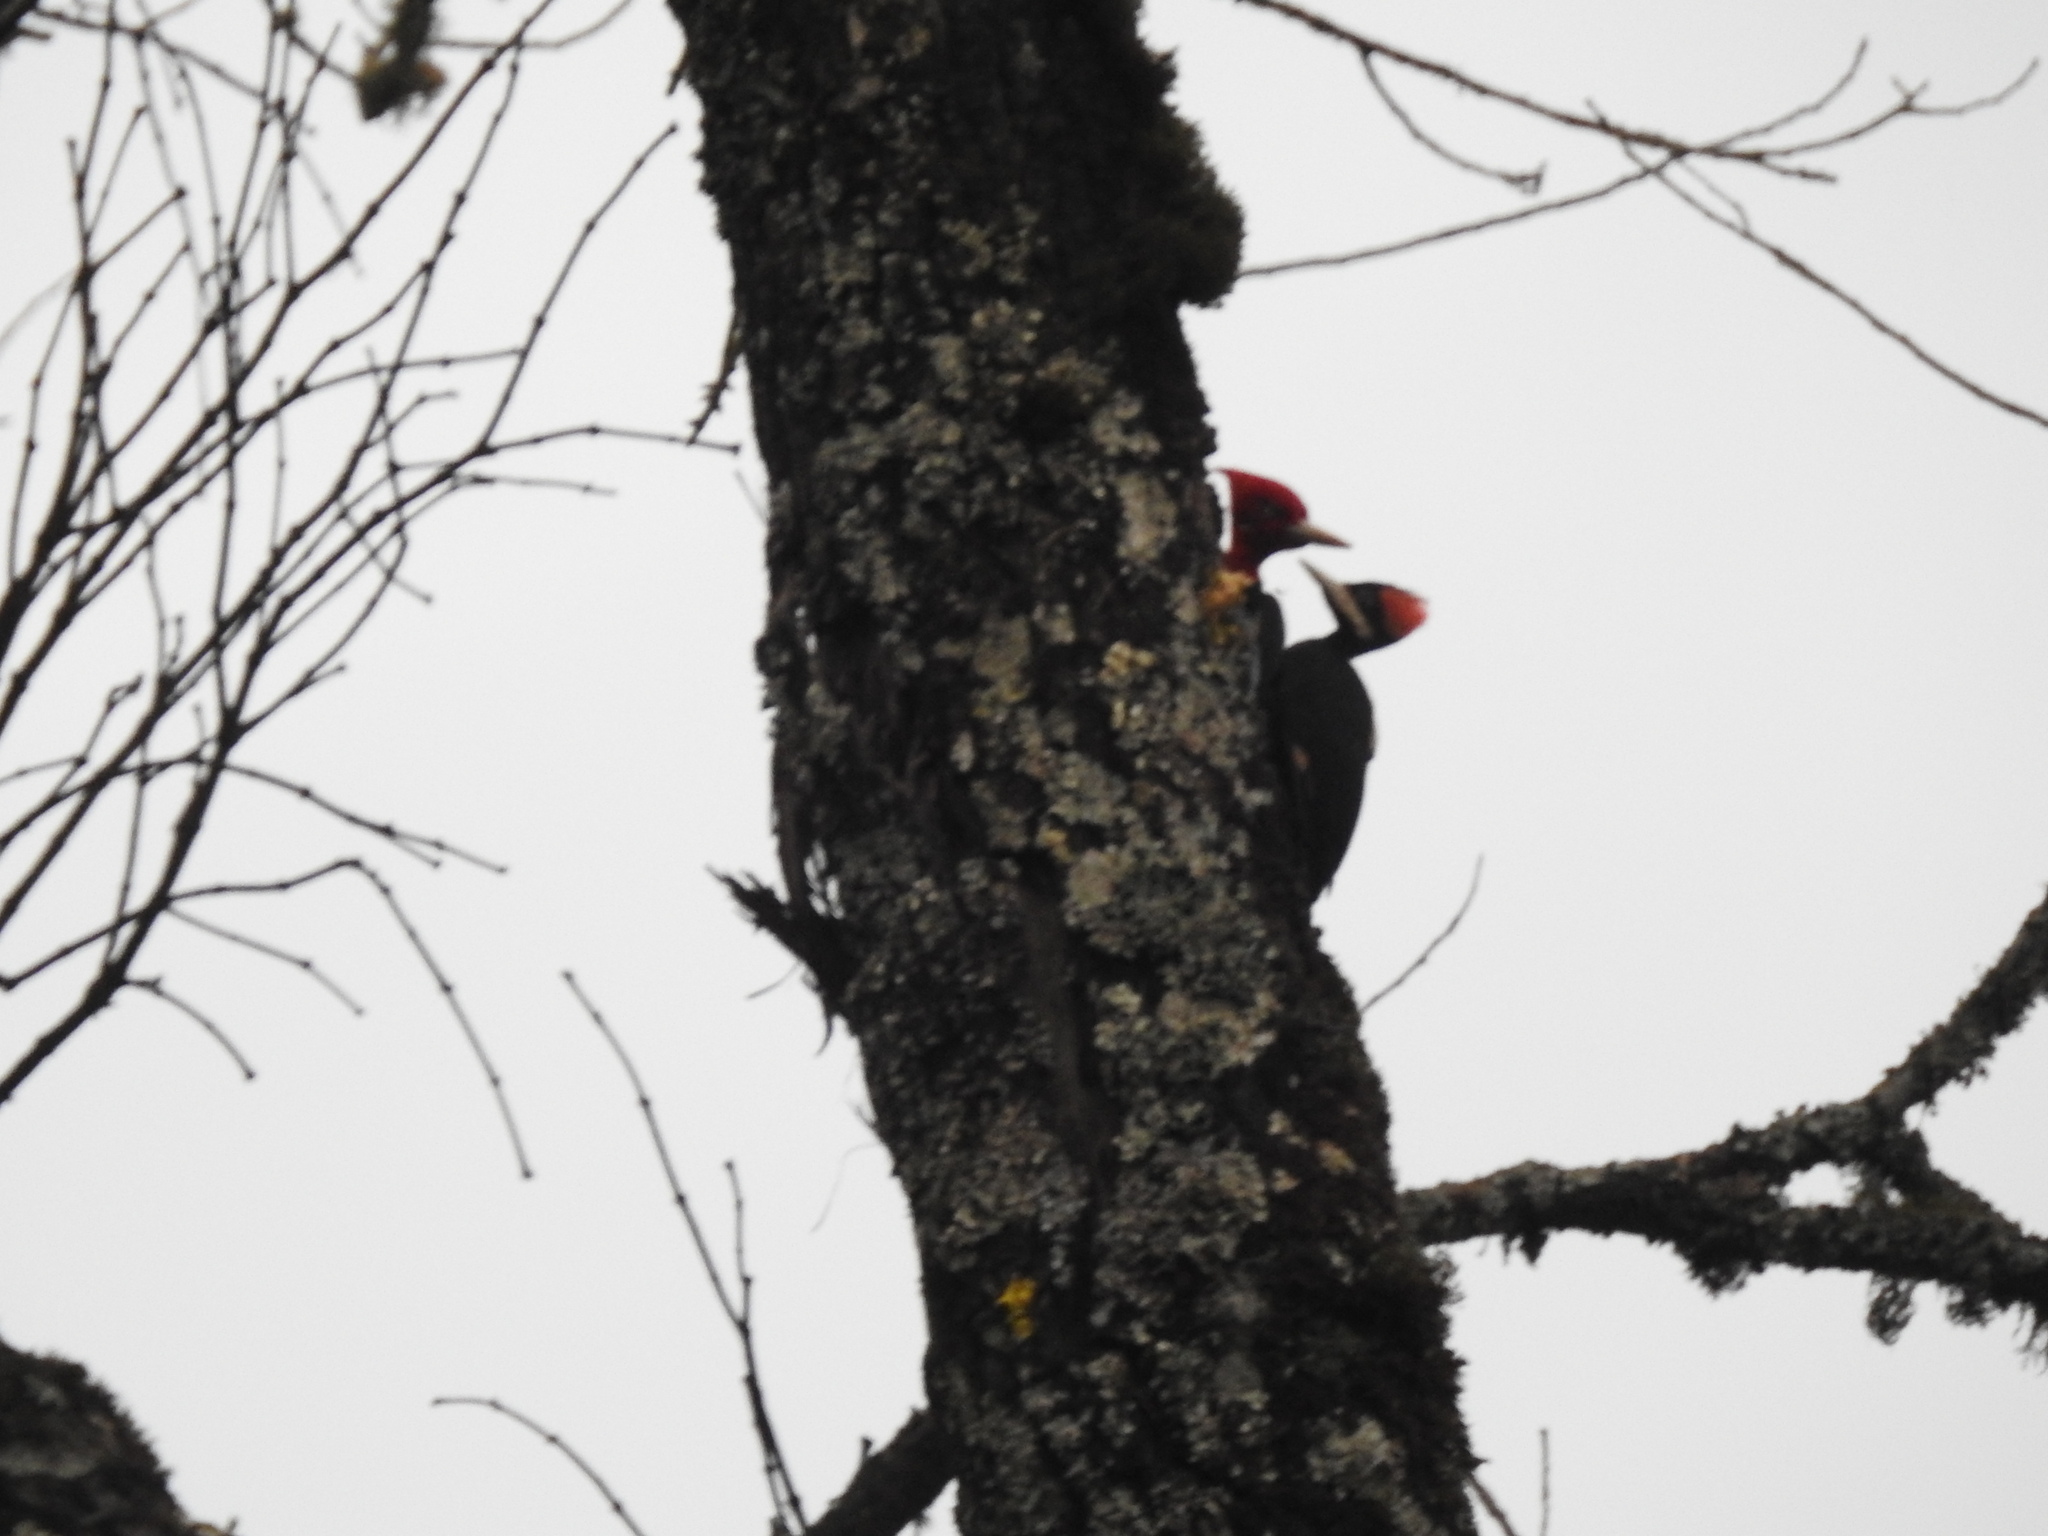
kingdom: Animalia
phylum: Chordata
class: Aves
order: Piciformes
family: Picidae
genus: Campephilus
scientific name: Campephilus leucopogon
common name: Cream-backed woodpecker
